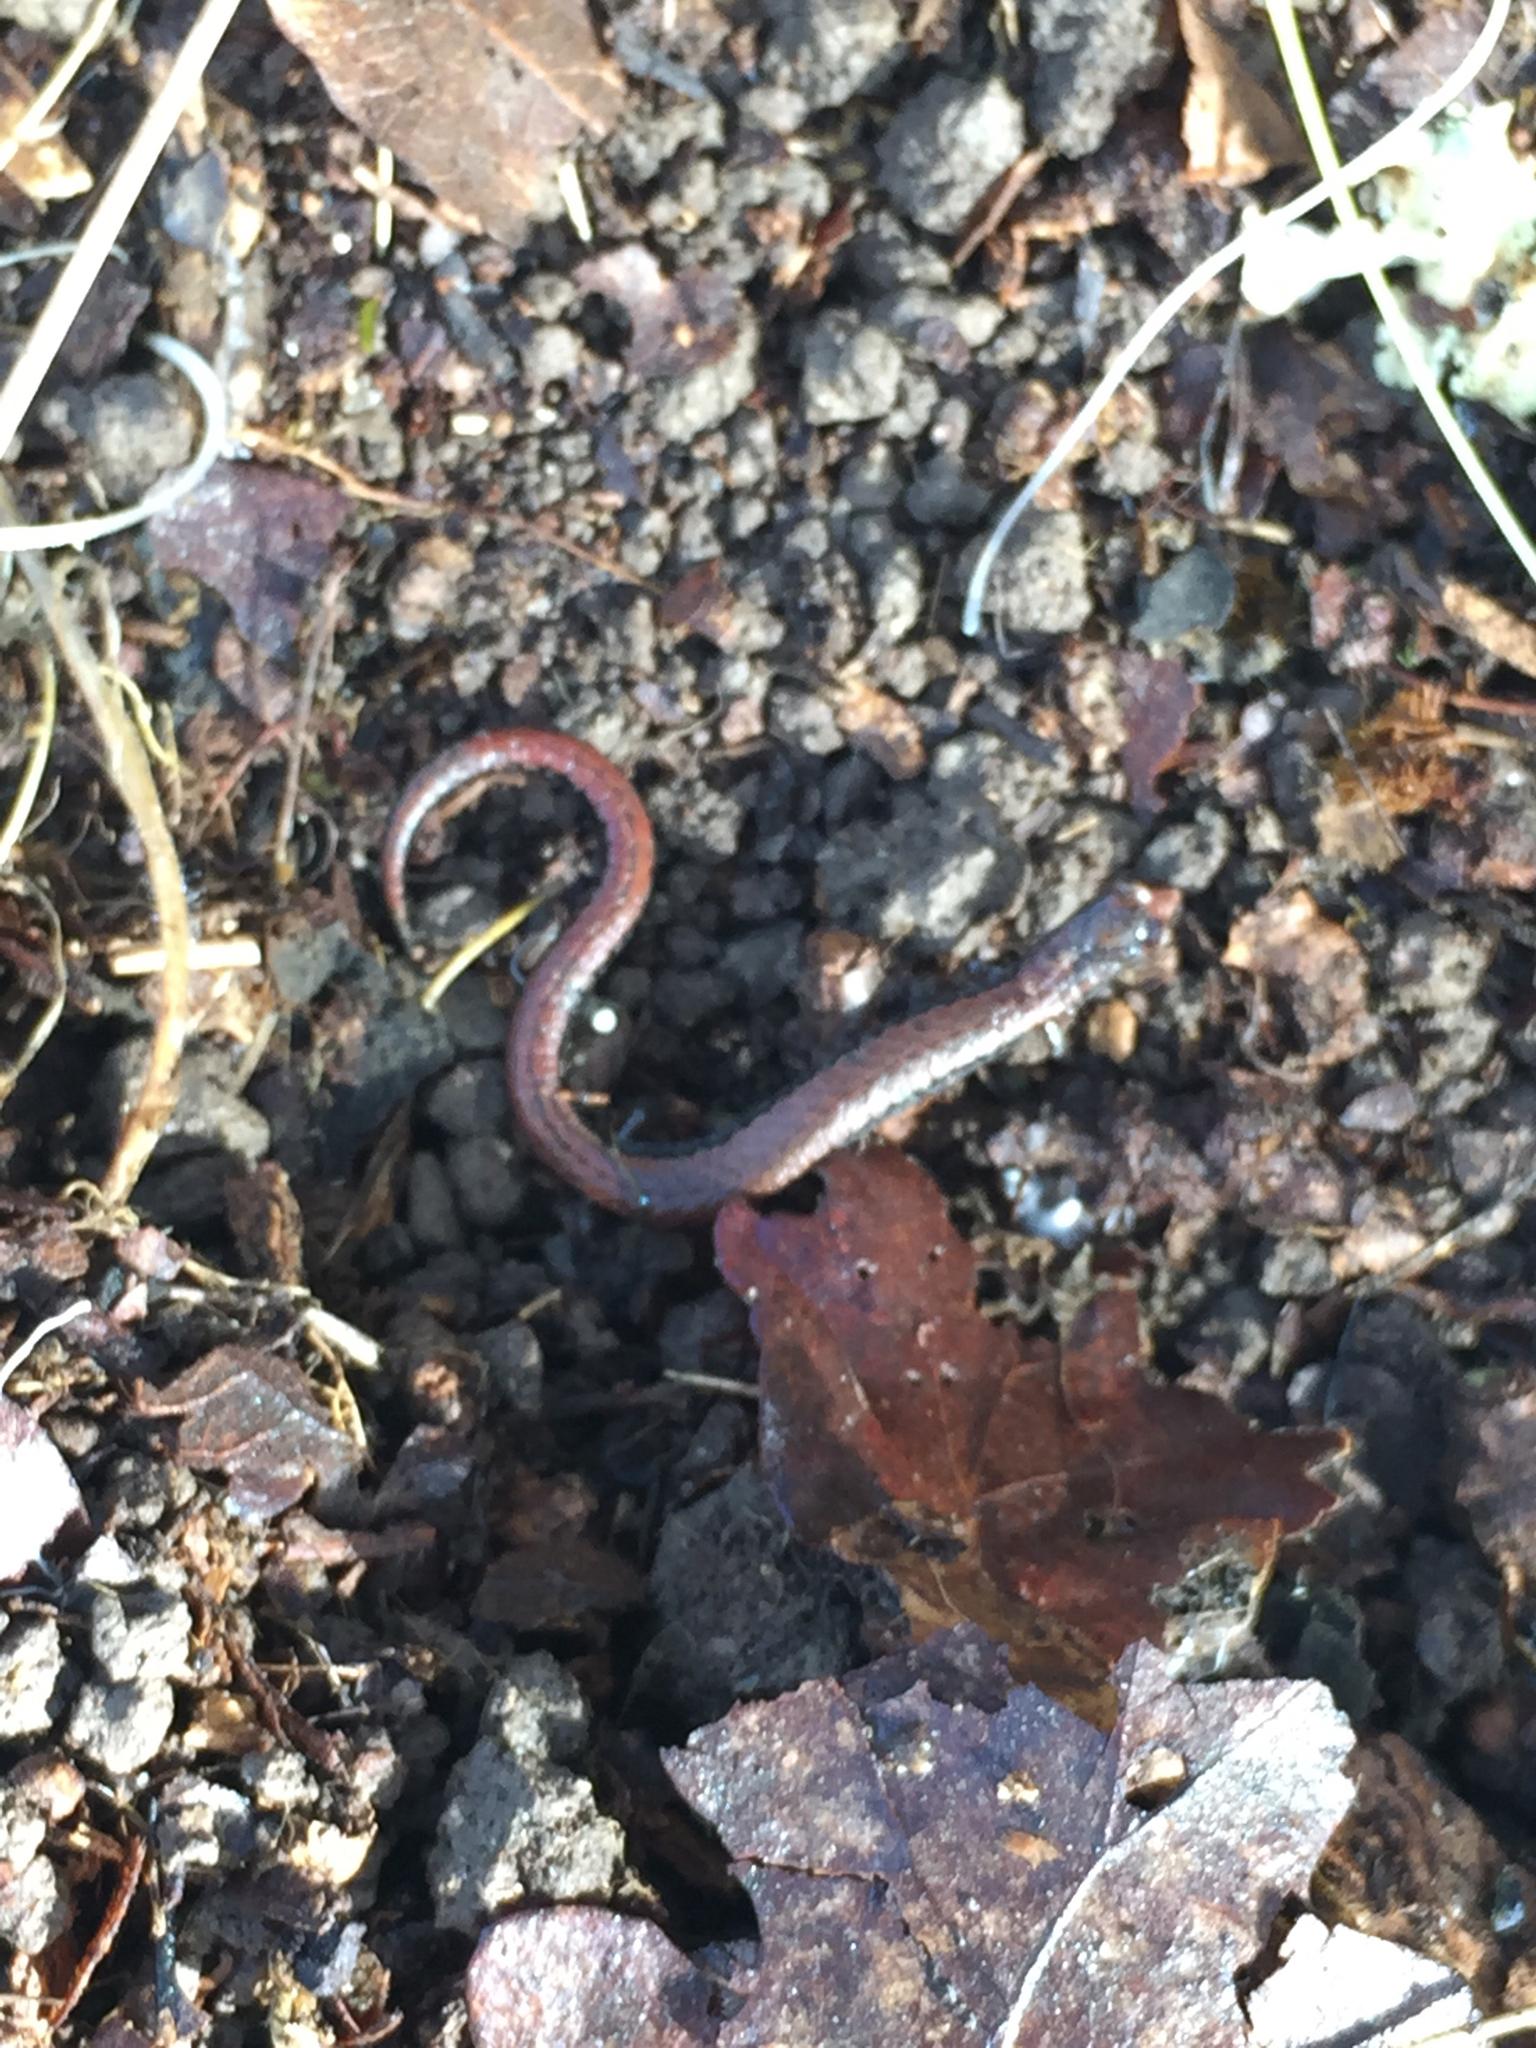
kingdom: Animalia
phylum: Chordata
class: Amphibia
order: Caudata
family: Plethodontidae
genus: Batrachoseps
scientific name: Batrachoseps attenuatus
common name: California slender salamander
